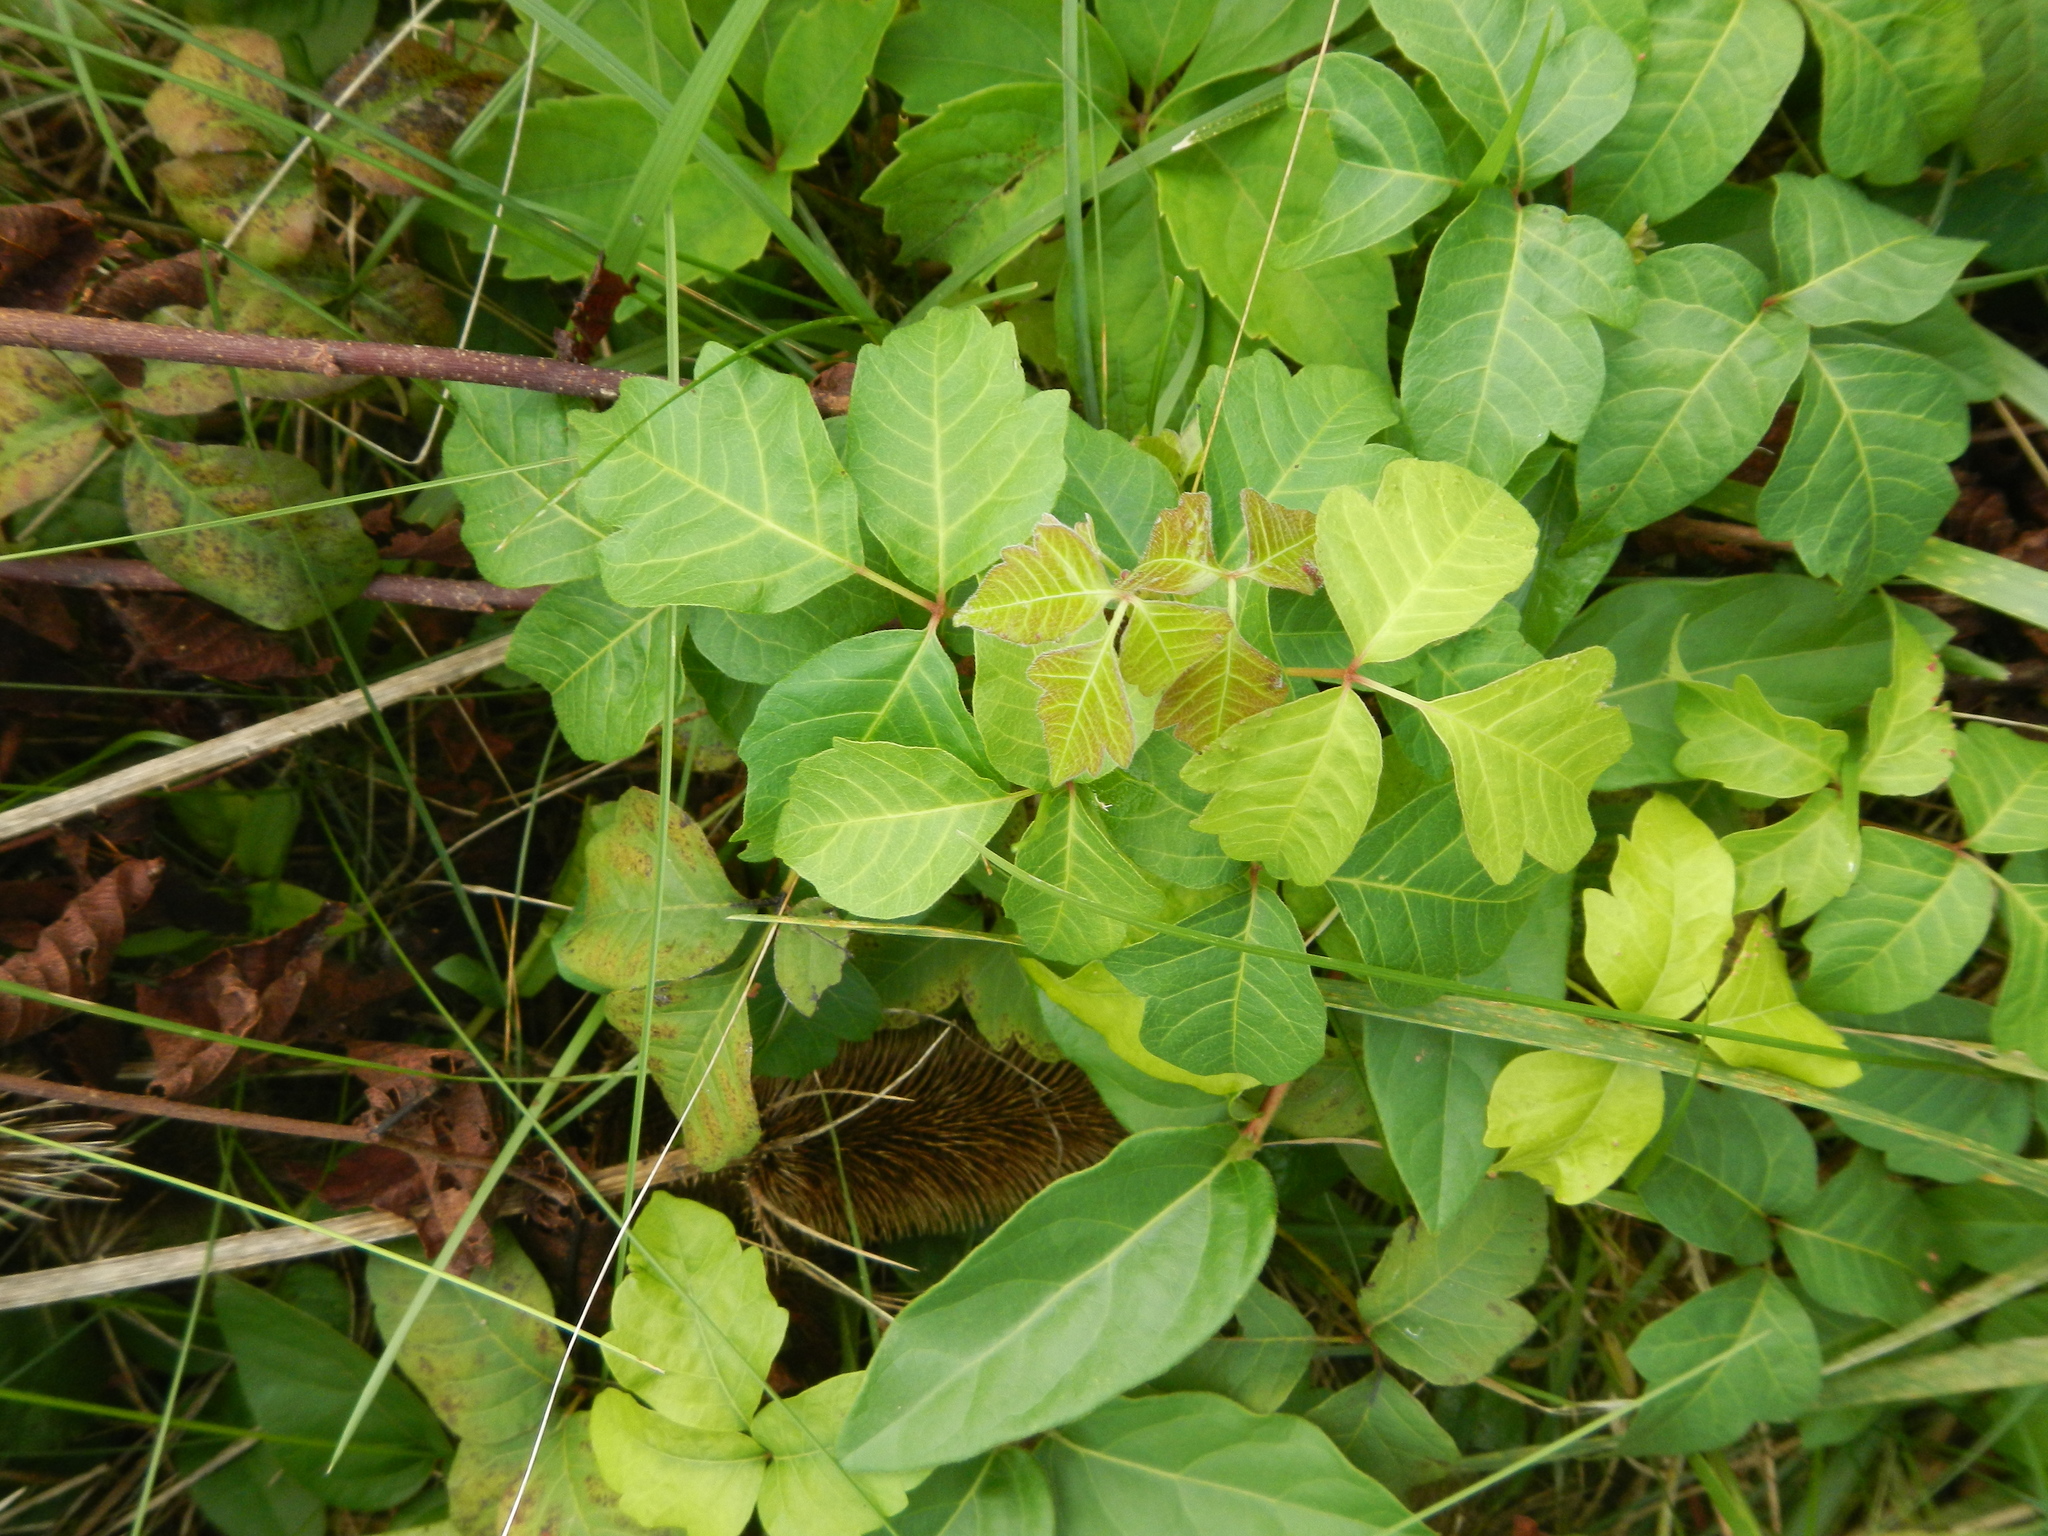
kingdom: Plantae
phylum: Tracheophyta
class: Magnoliopsida
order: Sapindales
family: Anacardiaceae
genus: Toxicodendron
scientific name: Toxicodendron radicans
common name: Poison ivy
